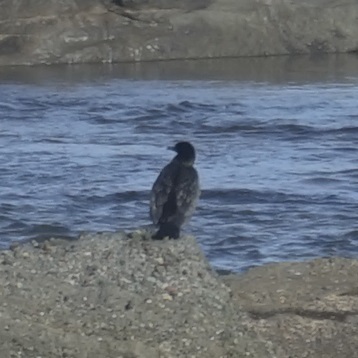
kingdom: Animalia
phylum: Chordata
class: Aves
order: Suliformes
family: Phalacrocoracidae
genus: Phalacrocorax
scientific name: Phalacrocorax sulcirostris
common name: Little black cormorant
